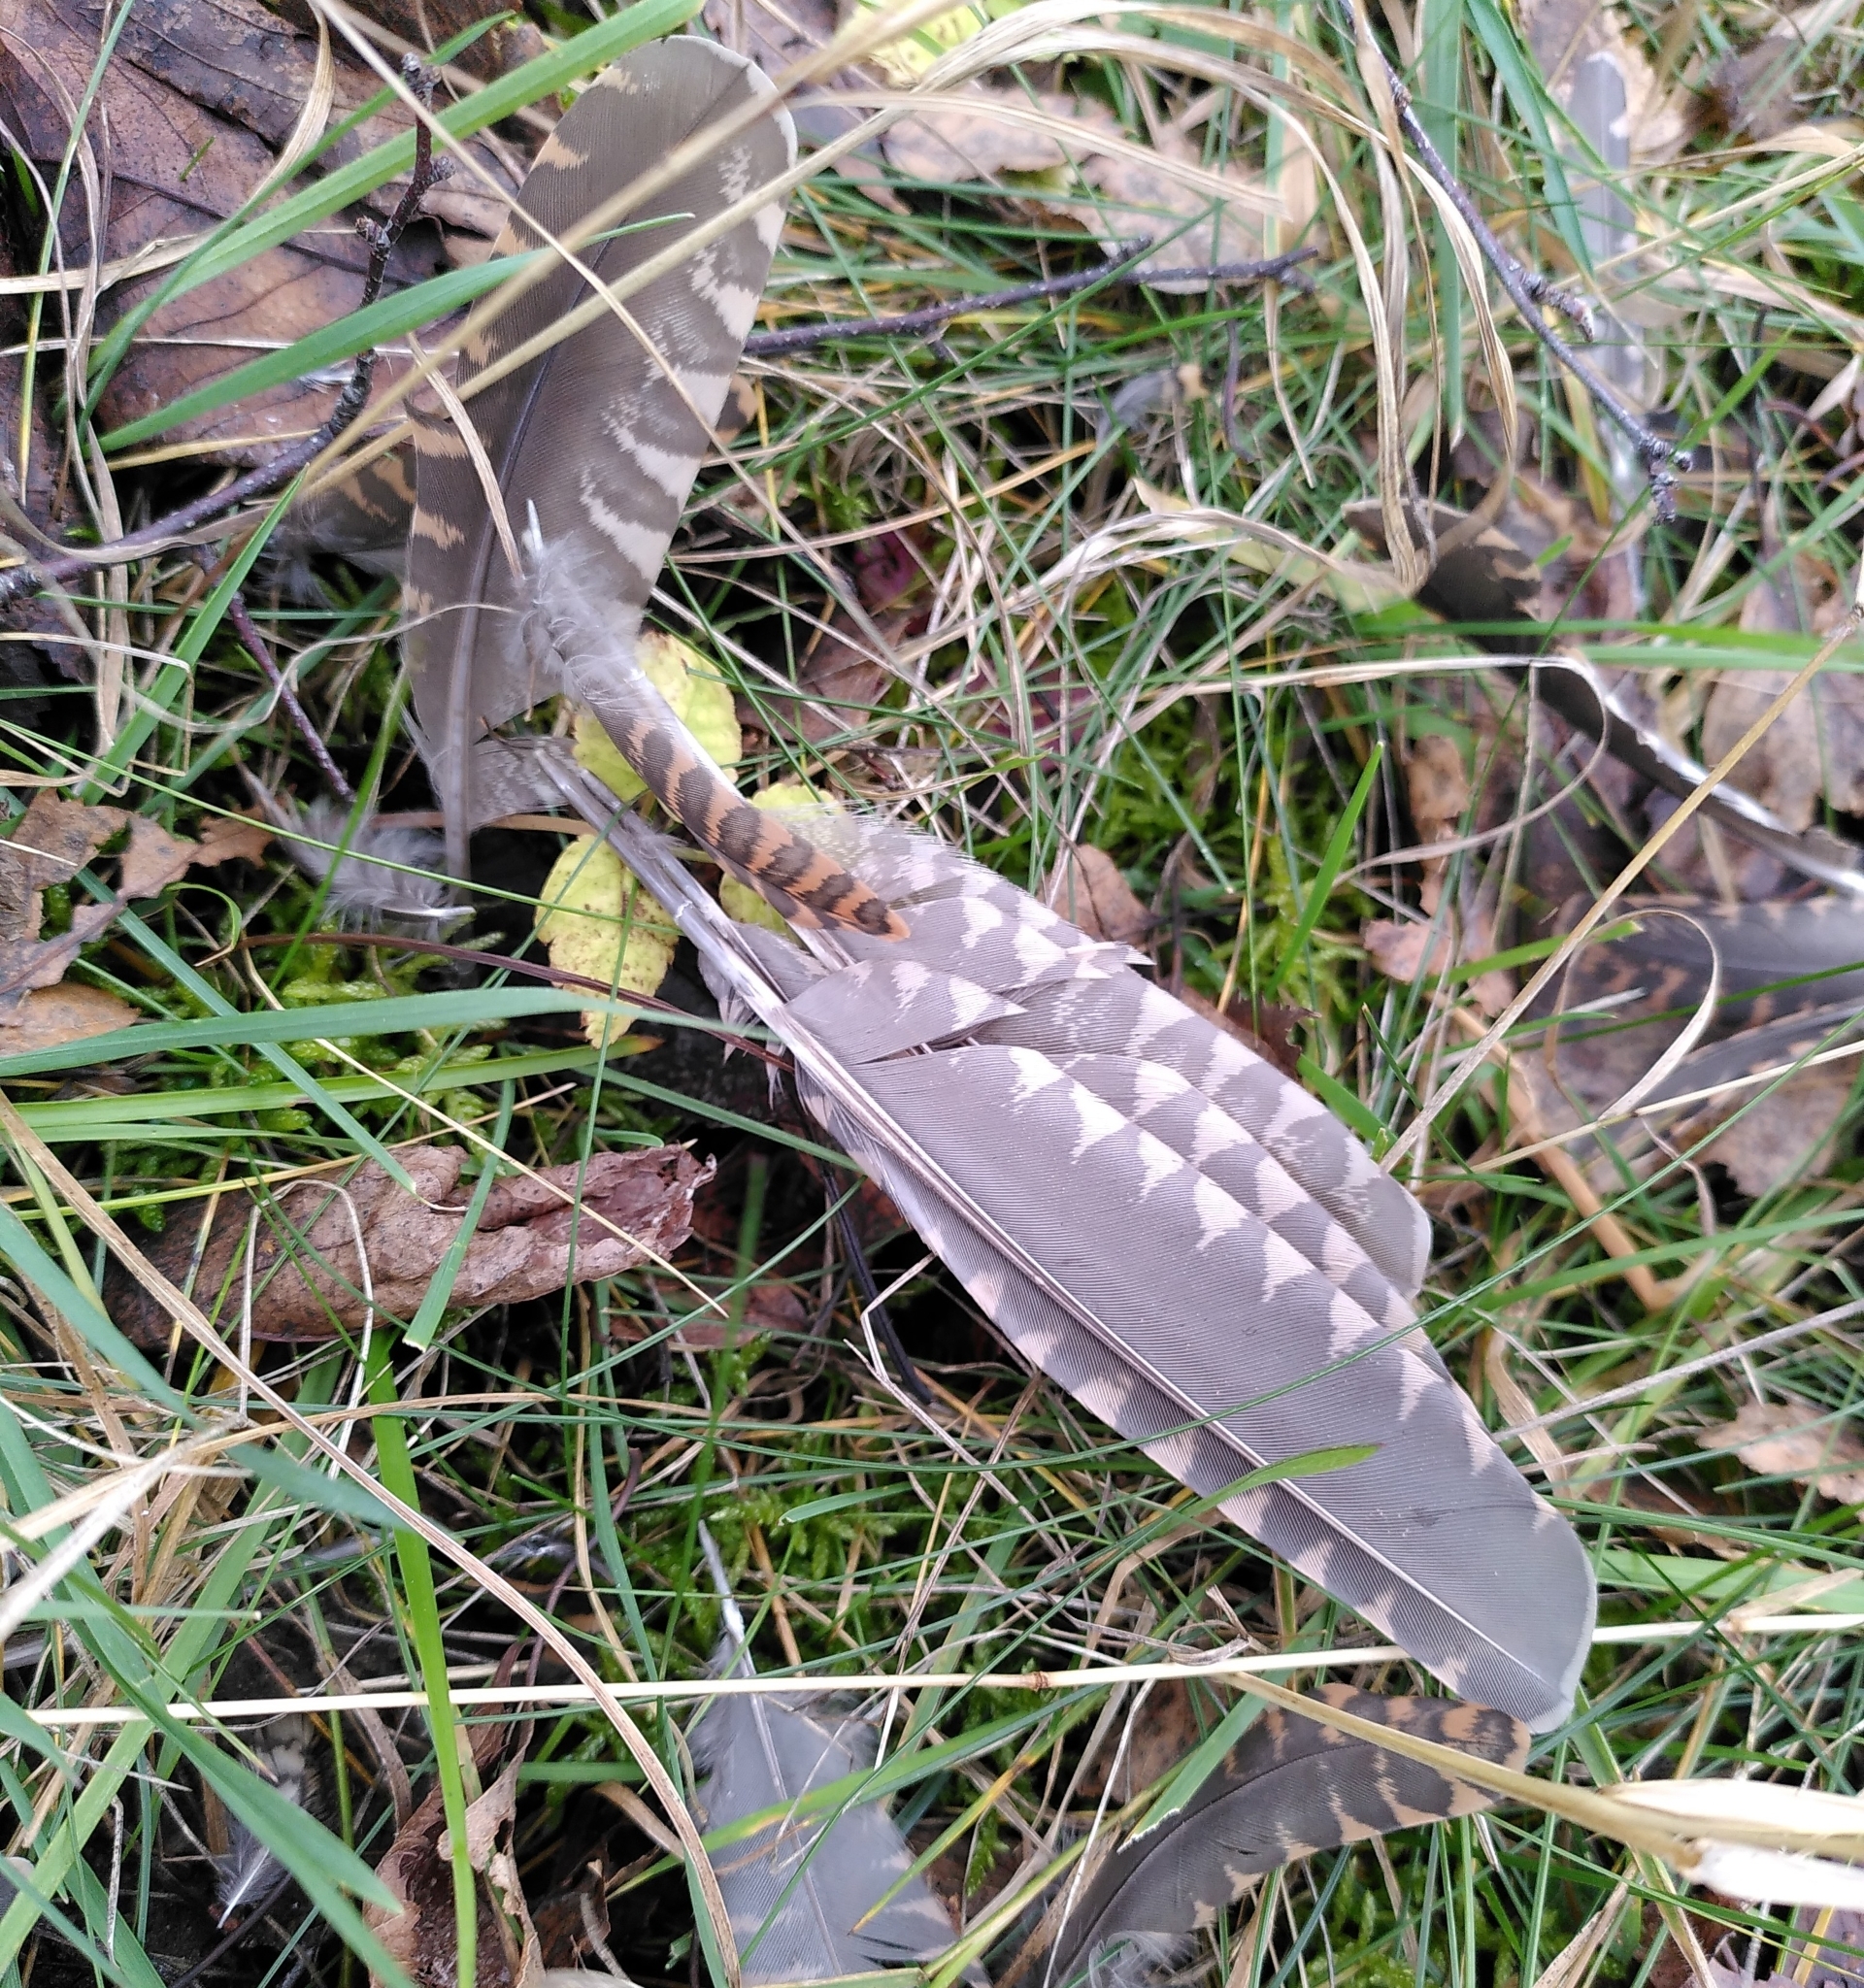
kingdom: Animalia
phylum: Chordata
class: Aves
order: Charadriiformes
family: Scolopacidae
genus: Scolopax
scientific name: Scolopax rusticola
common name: Eurasian woodcock
